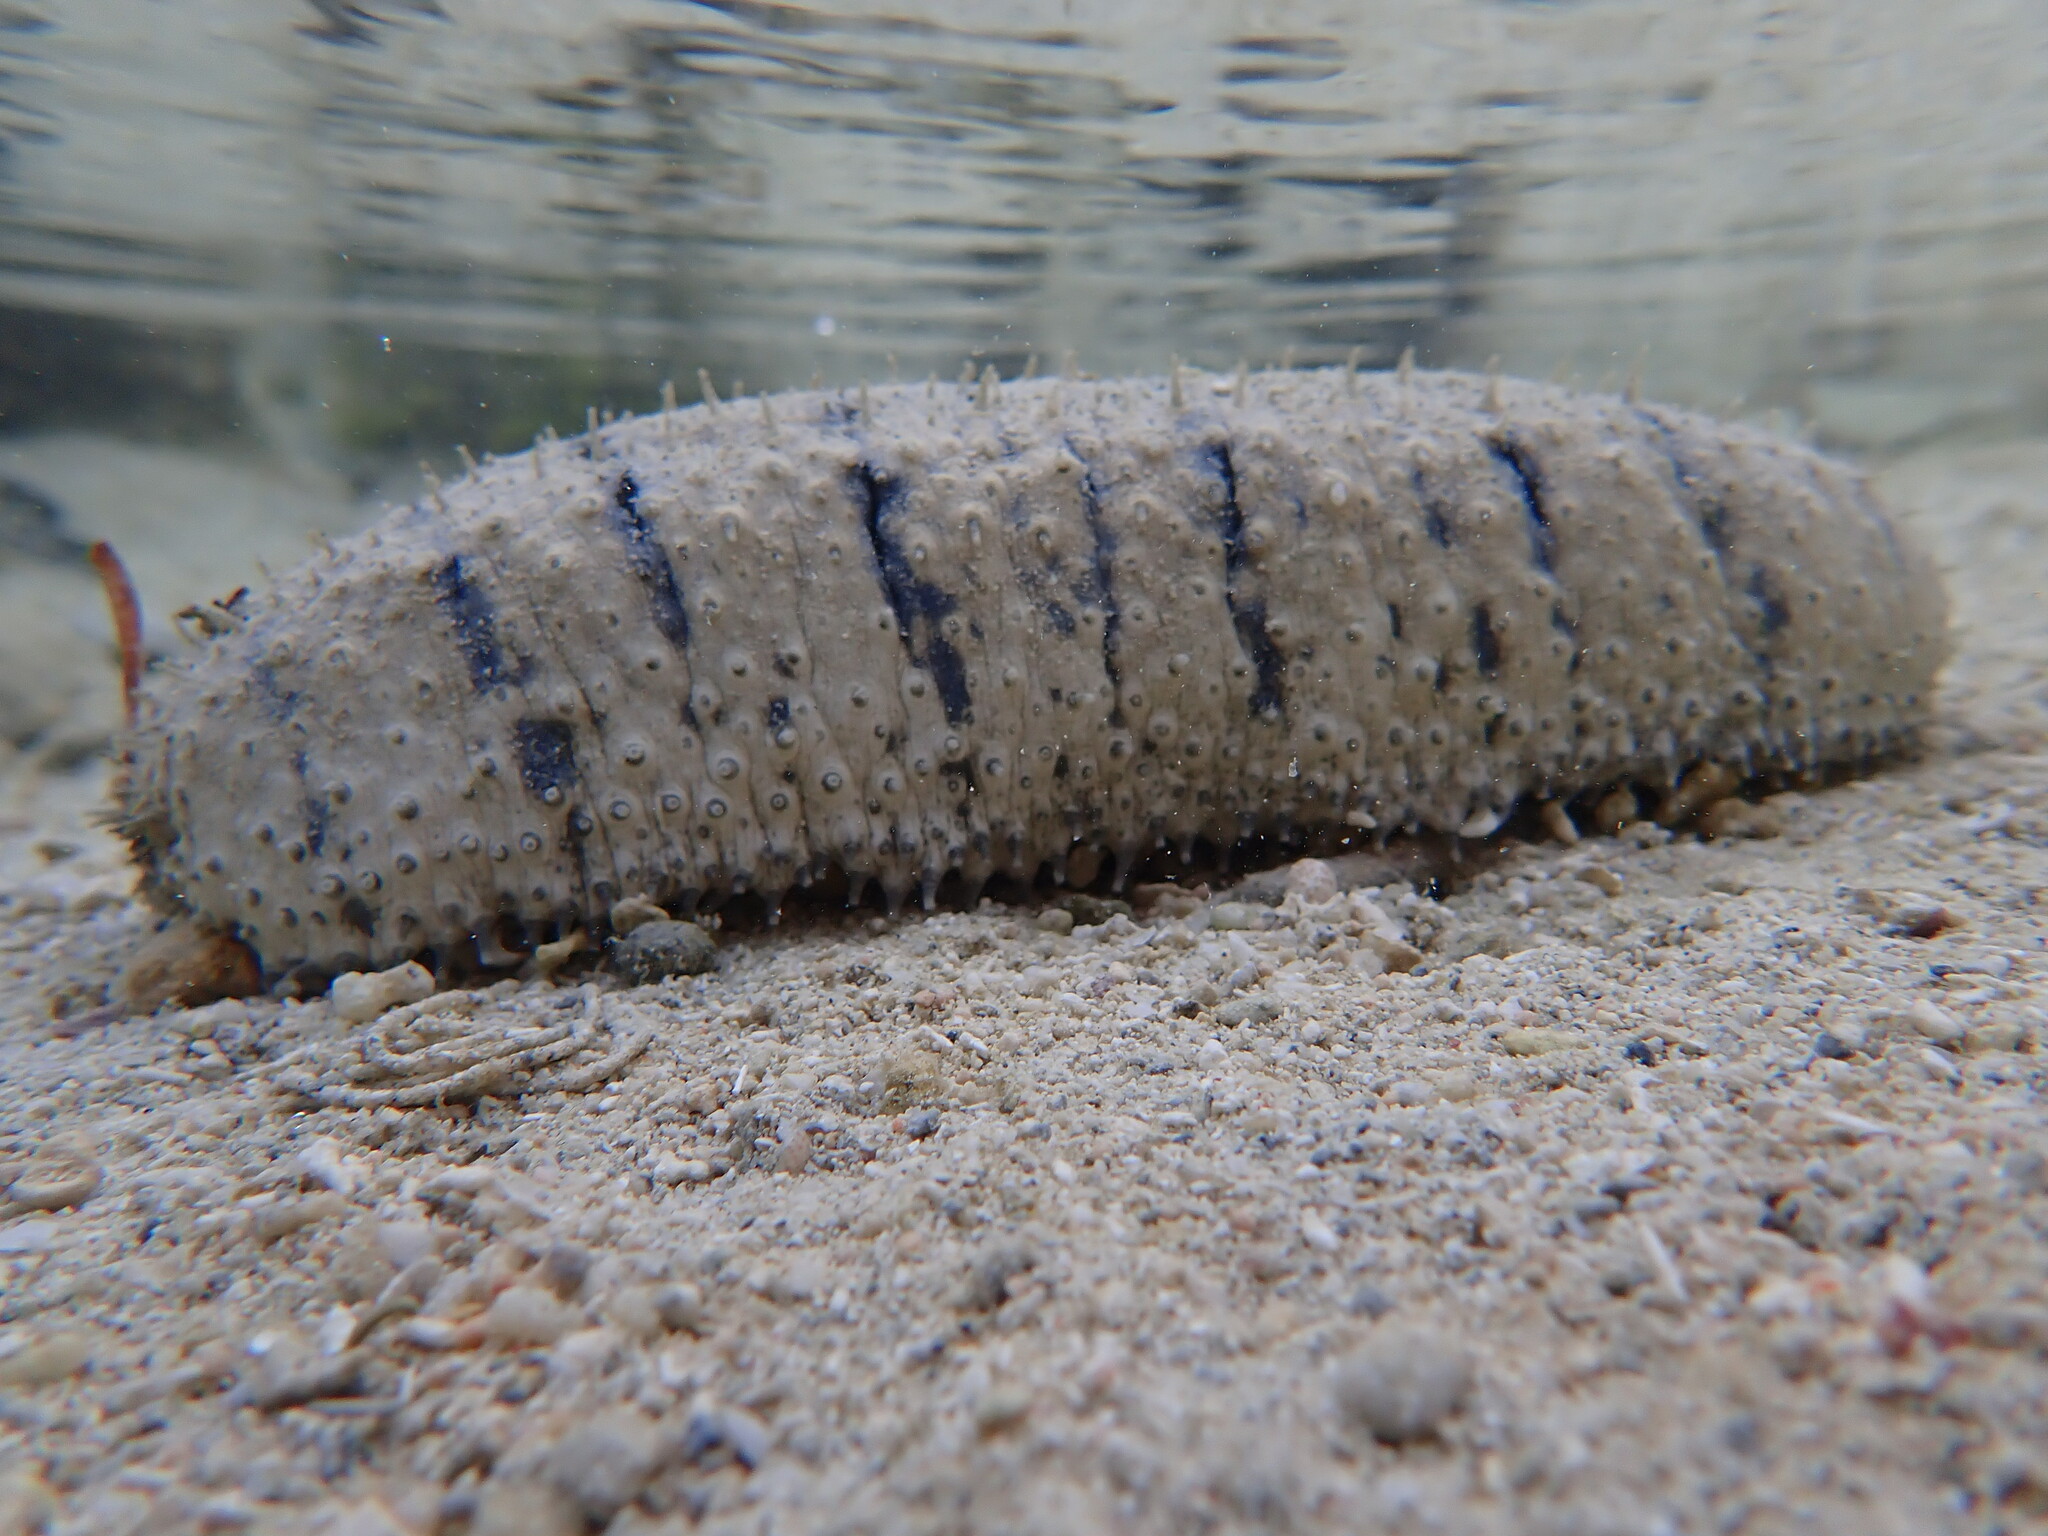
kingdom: Animalia
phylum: Echinodermata
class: Holothuroidea
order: Holothuriida
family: Holothuriidae
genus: Holothuria
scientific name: Holothuria scabra
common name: Golden sandfish
